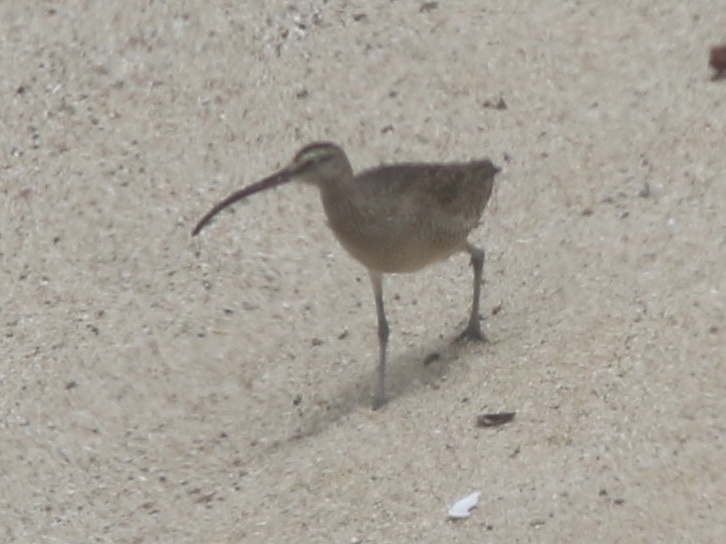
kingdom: Animalia
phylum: Chordata
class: Aves
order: Charadriiformes
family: Scolopacidae
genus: Numenius
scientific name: Numenius phaeopus
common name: Whimbrel
